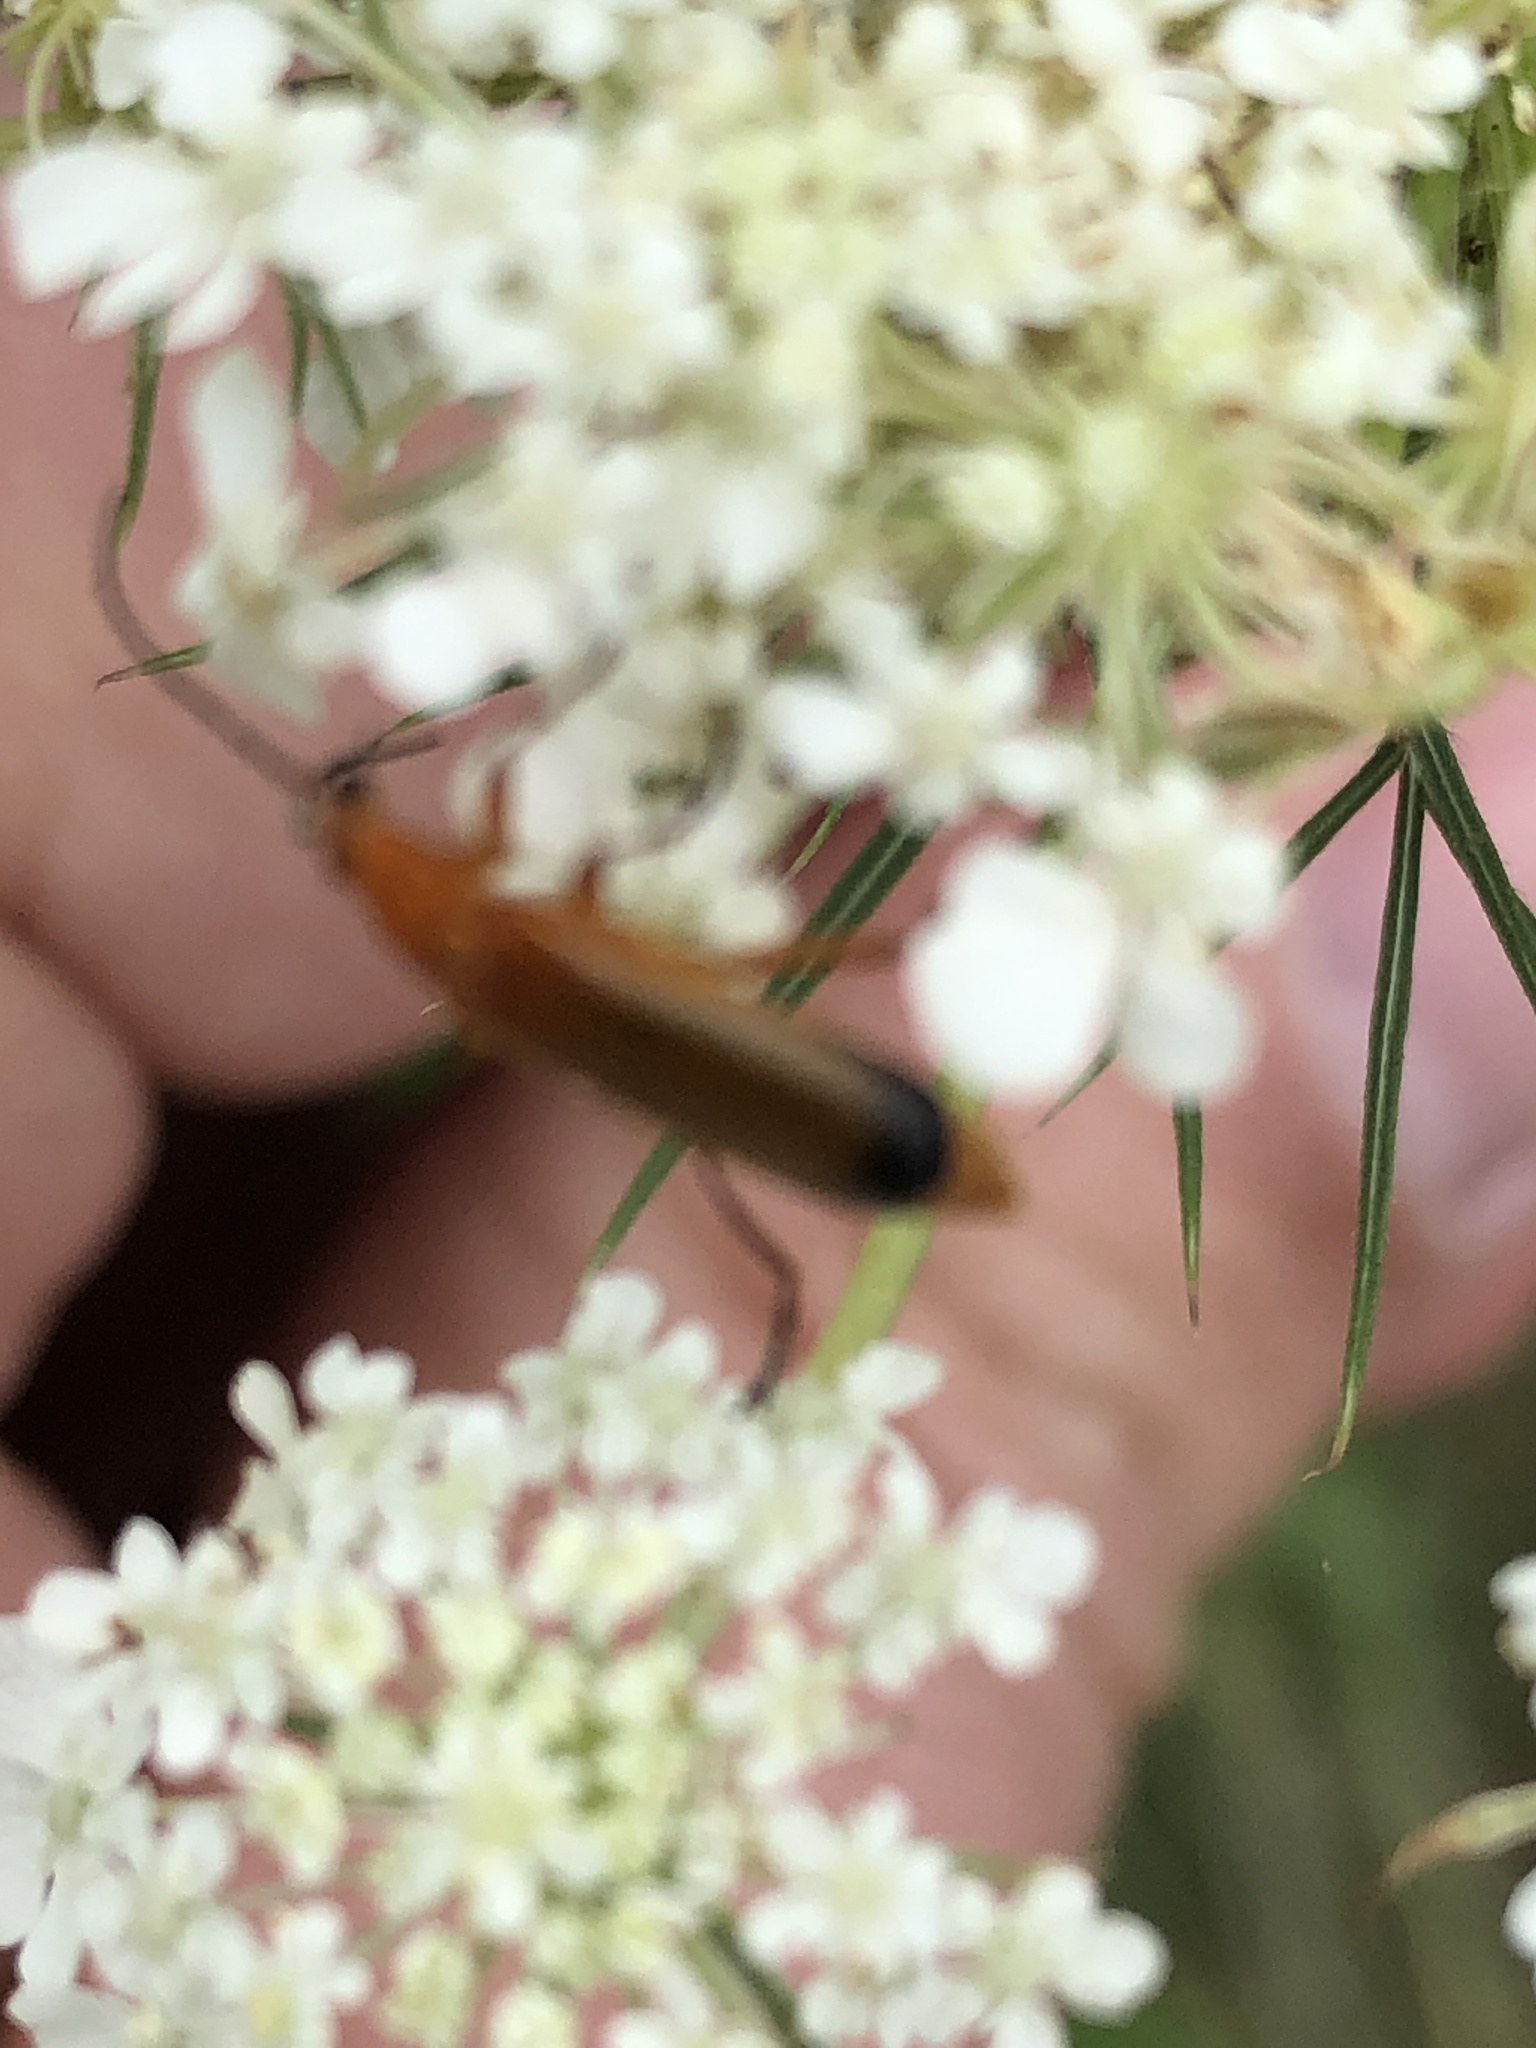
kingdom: Animalia
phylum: Arthropoda
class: Insecta
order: Coleoptera
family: Cantharidae
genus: Rhagonycha
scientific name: Rhagonycha fulva
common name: Common red soldier beetle
